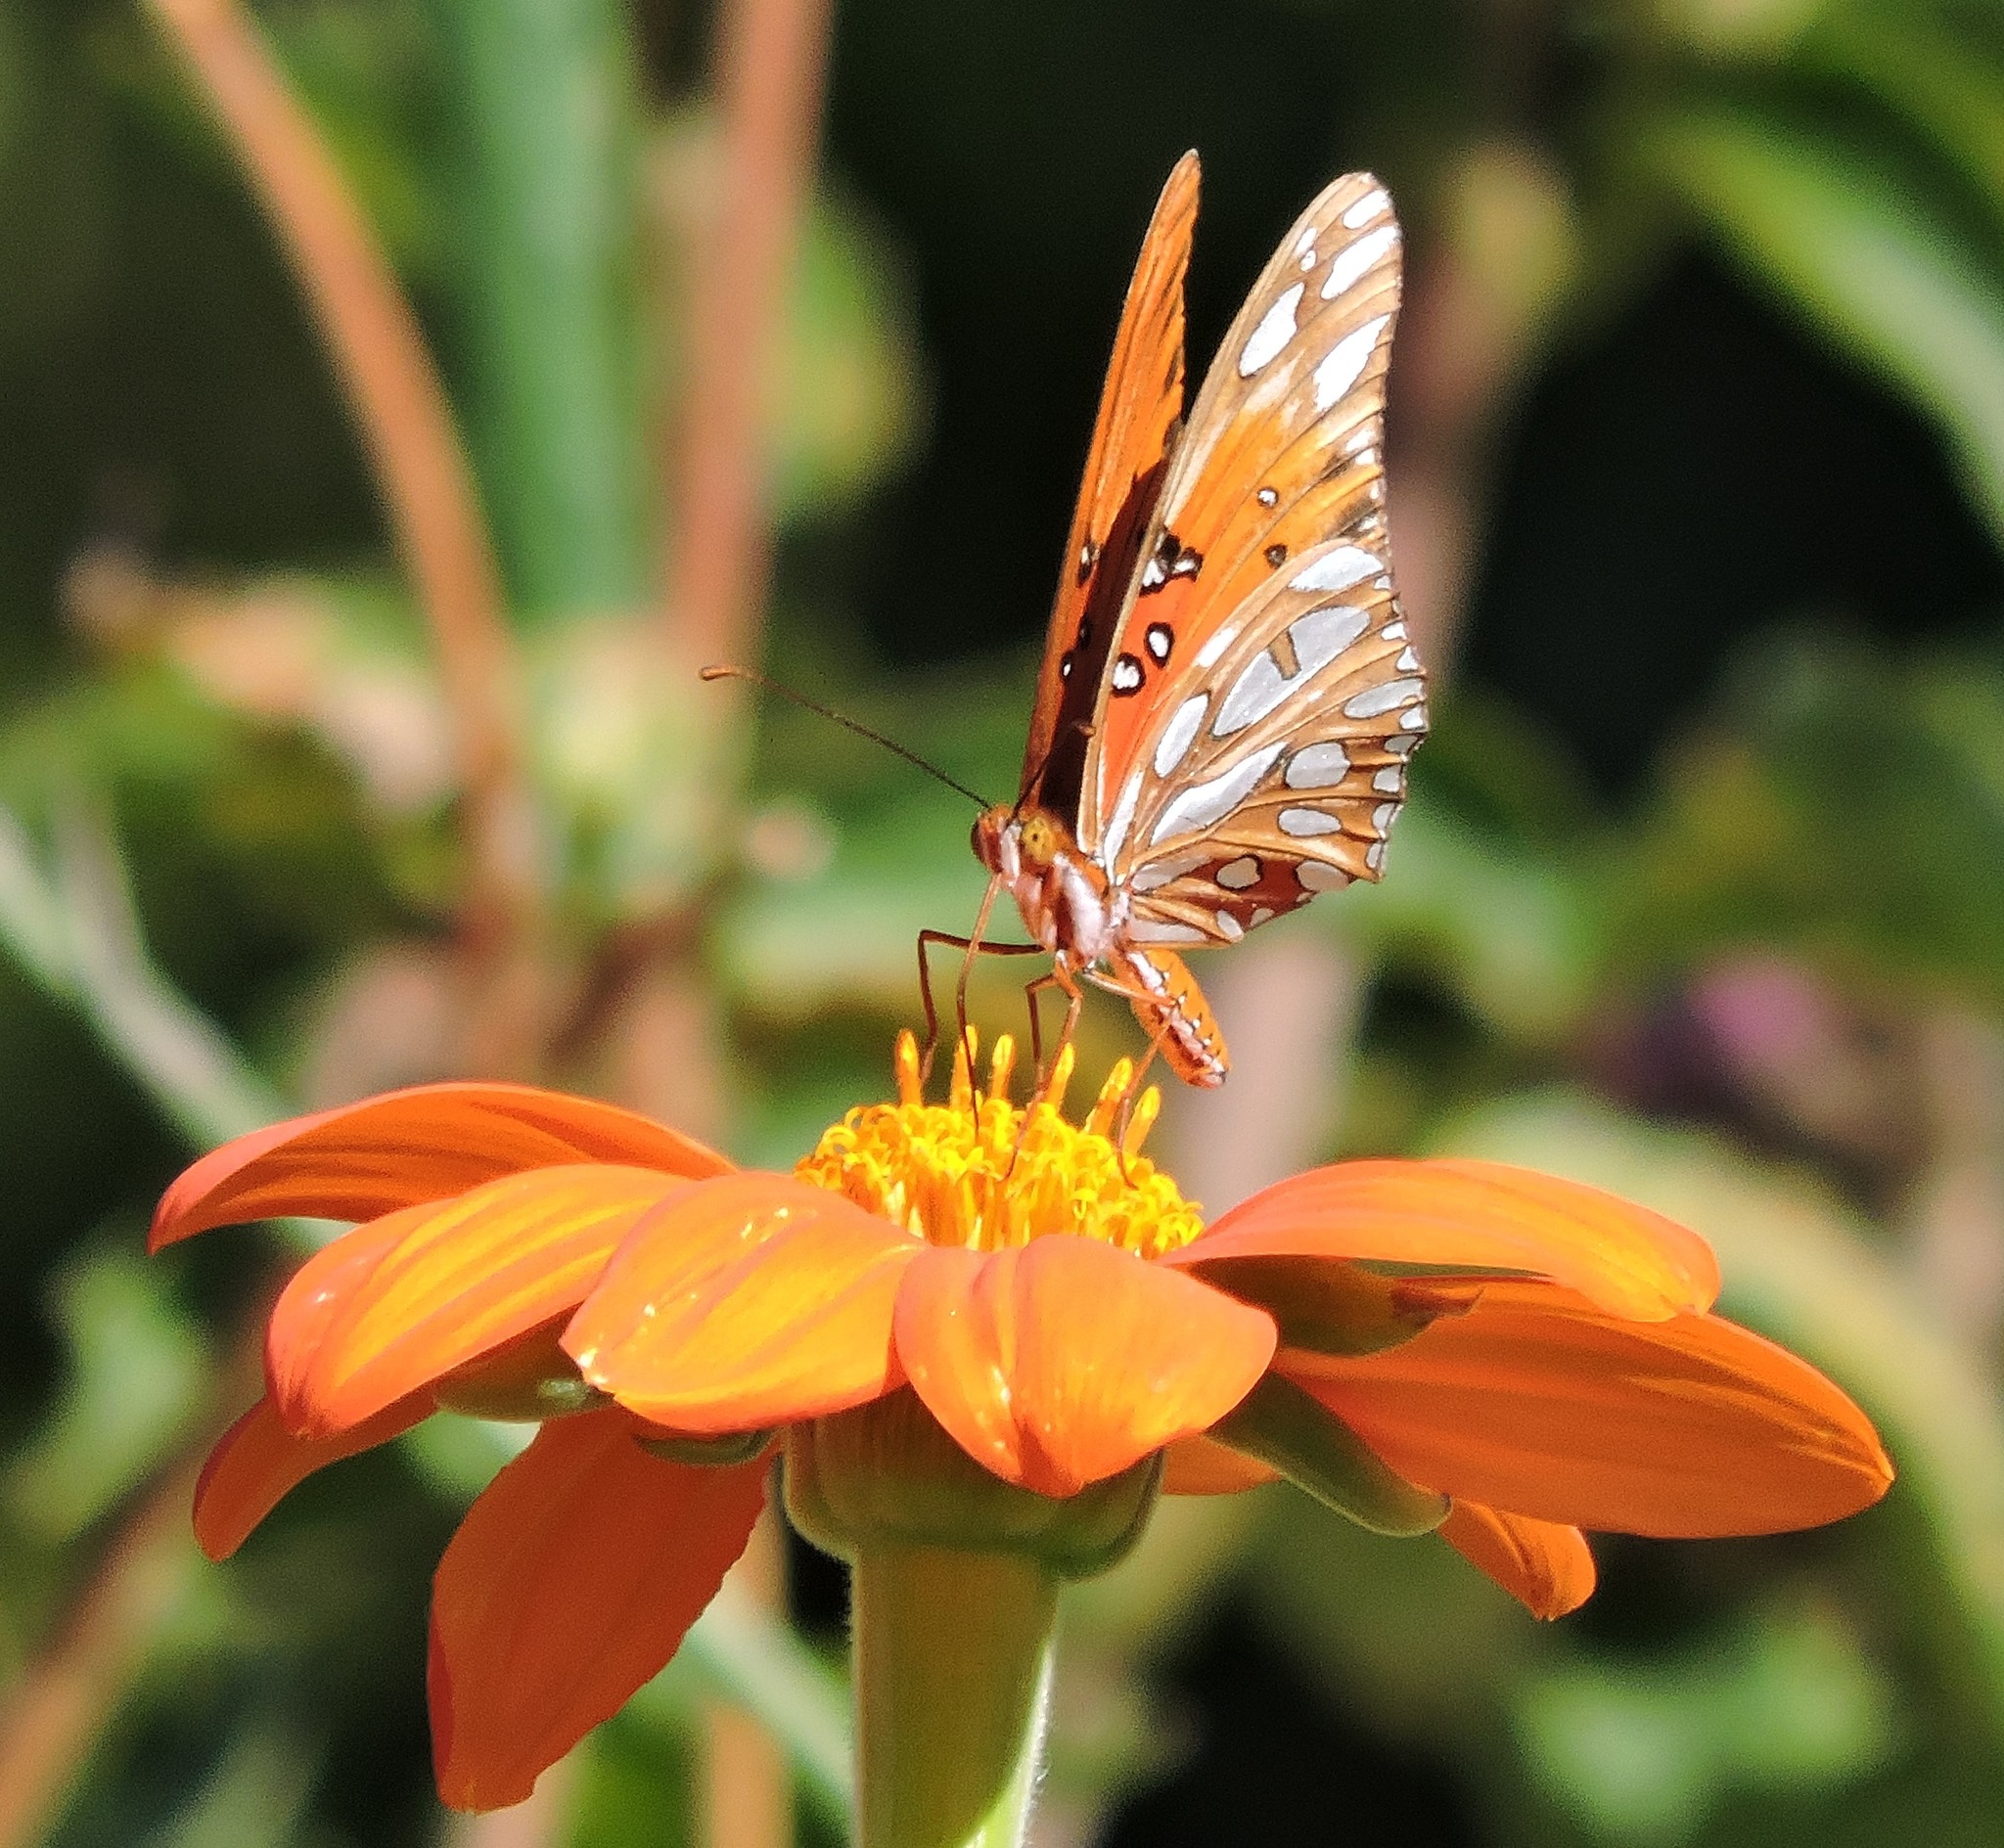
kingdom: Animalia
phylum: Arthropoda
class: Insecta
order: Lepidoptera
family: Nymphalidae
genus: Dione
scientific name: Dione vanillae
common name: Gulf fritillary
